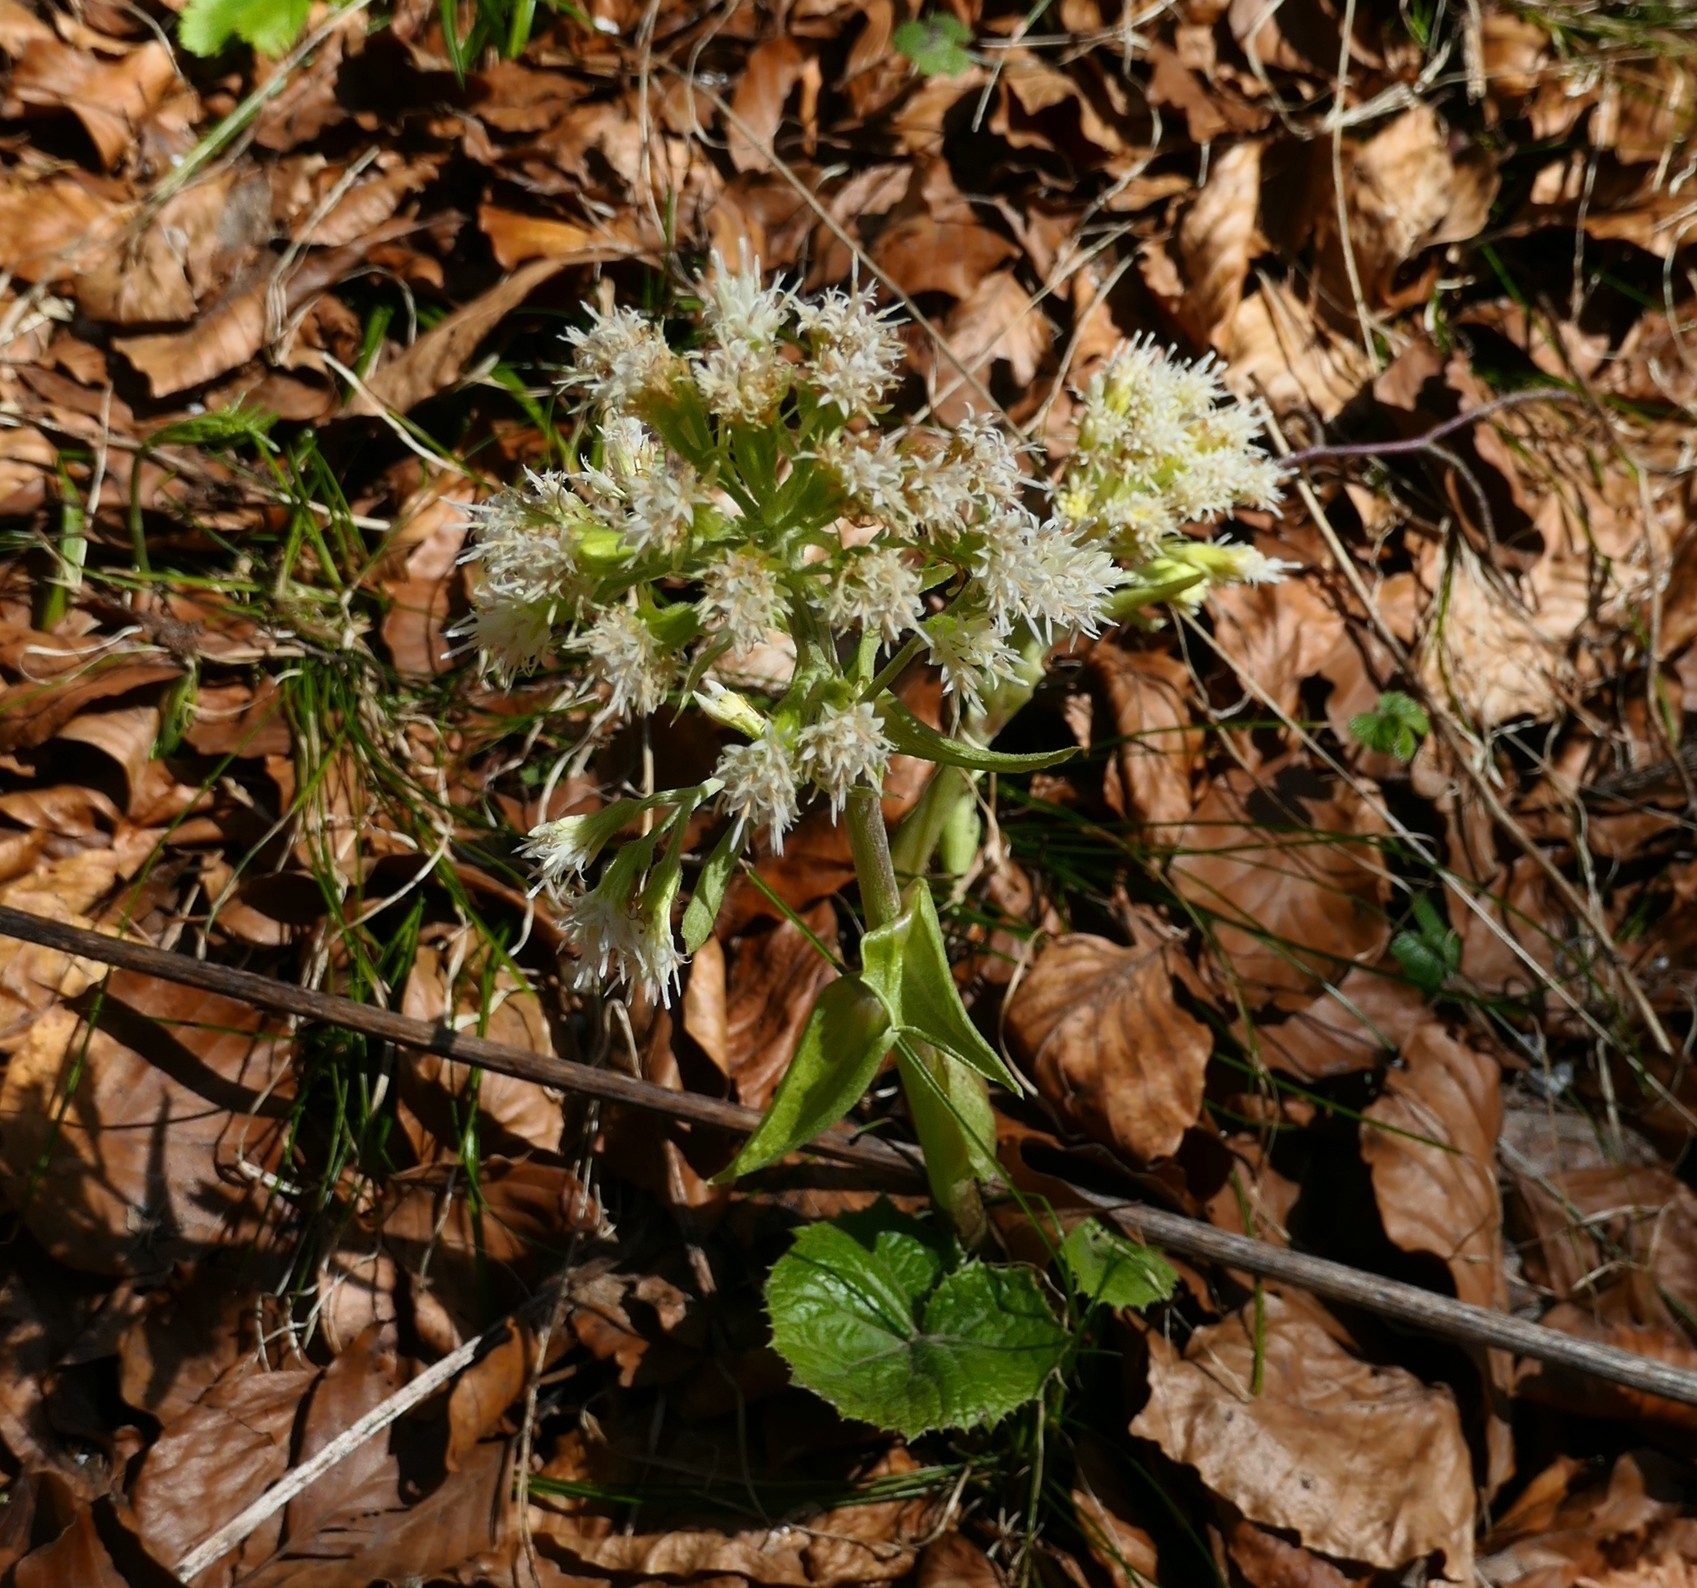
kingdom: Plantae
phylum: Tracheophyta
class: Magnoliopsida
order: Asterales
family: Asteraceae
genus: Petasites
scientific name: Petasites albus
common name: White butterbur
